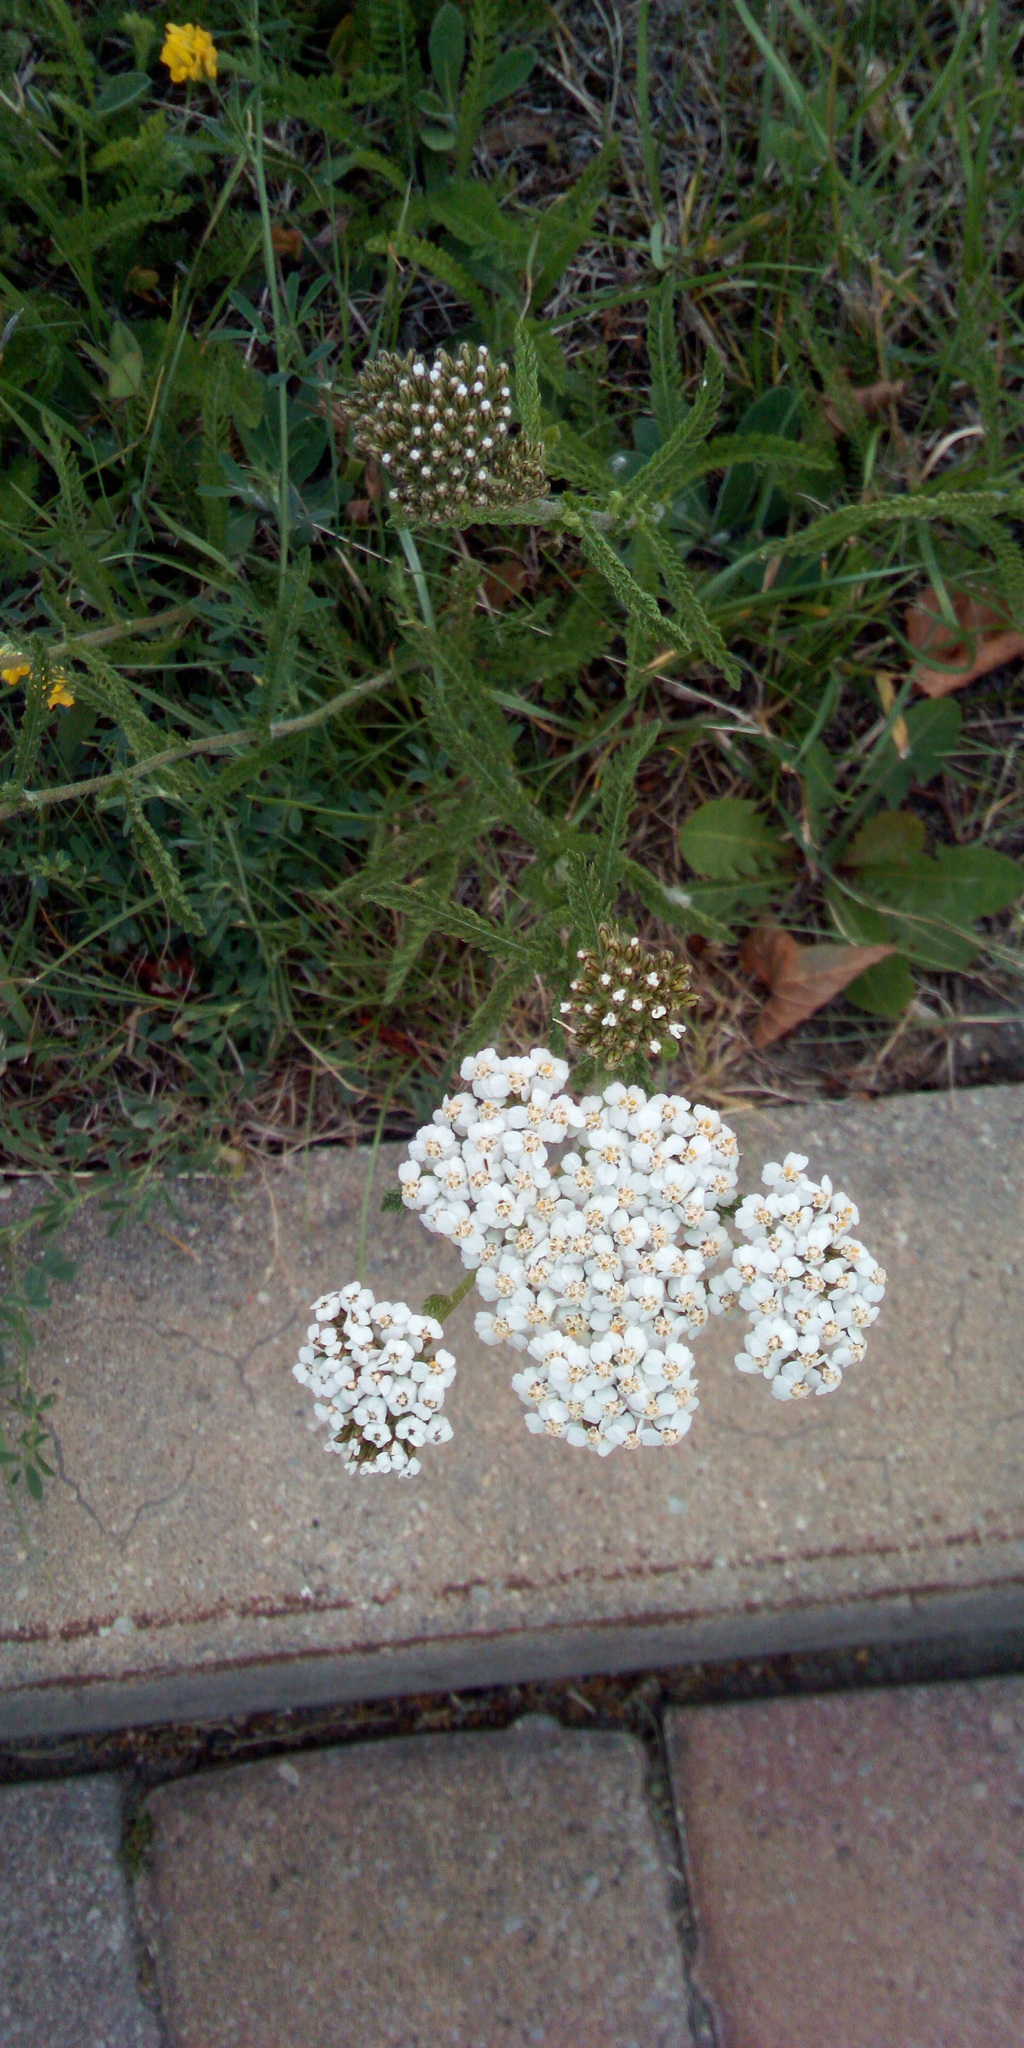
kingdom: Plantae
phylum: Tracheophyta
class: Magnoliopsida
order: Asterales
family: Asteraceae
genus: Achillea
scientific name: Achillea millefolium
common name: Yarrow
